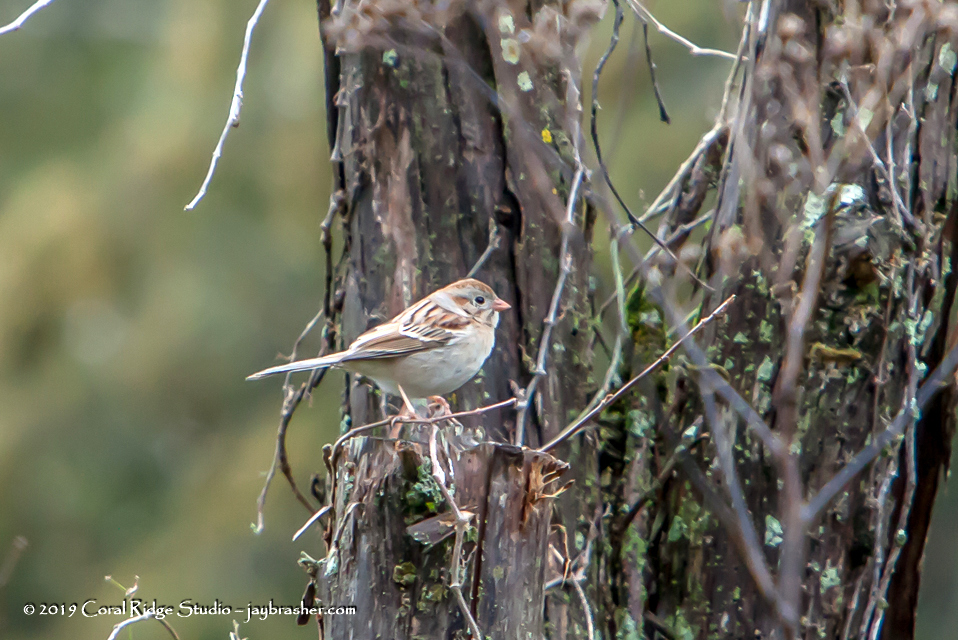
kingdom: Animalia
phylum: Chordata
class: Aves
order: Passeriformes
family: Passerellidae
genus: Spizella
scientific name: Spizella pusilla
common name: Field sparrow
